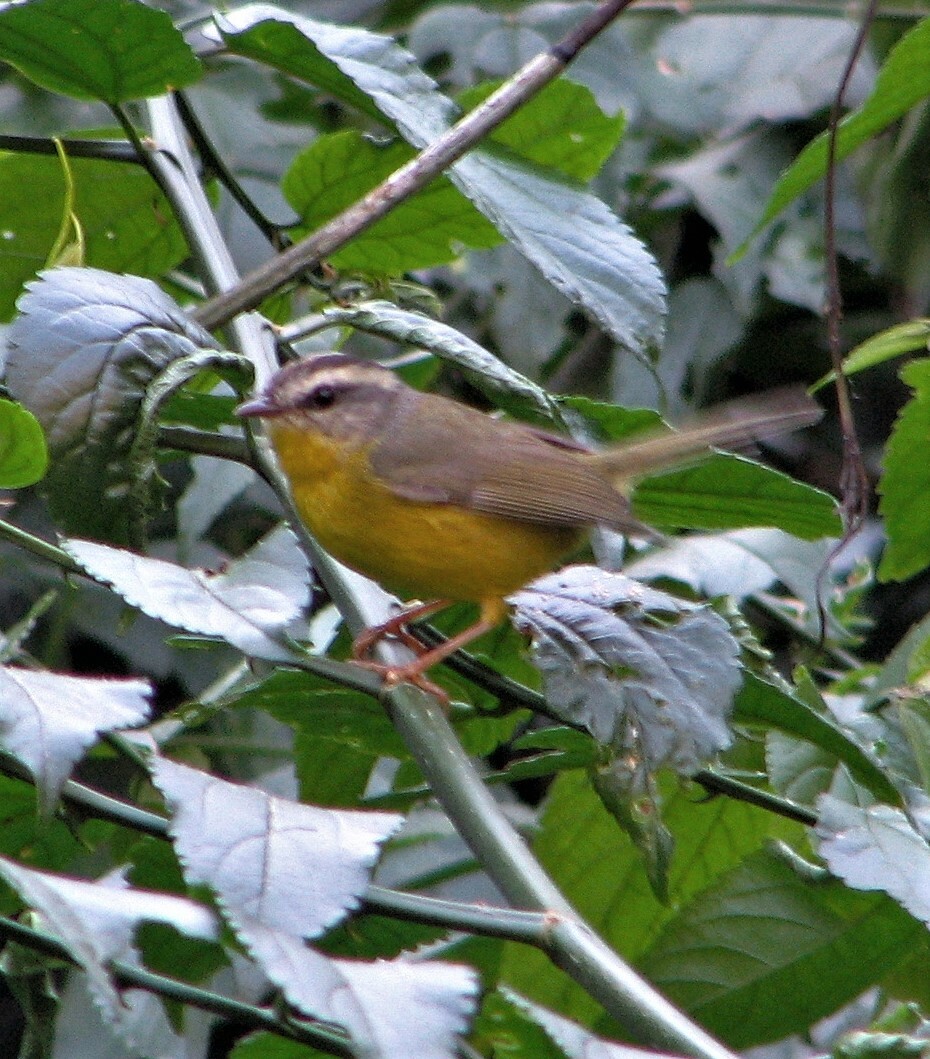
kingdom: Animalia
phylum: Chordata
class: Aves
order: Passeriformes
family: Parulidae
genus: Basileuterus
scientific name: Basileuterus culicivorus
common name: Golden-crowned warbler
